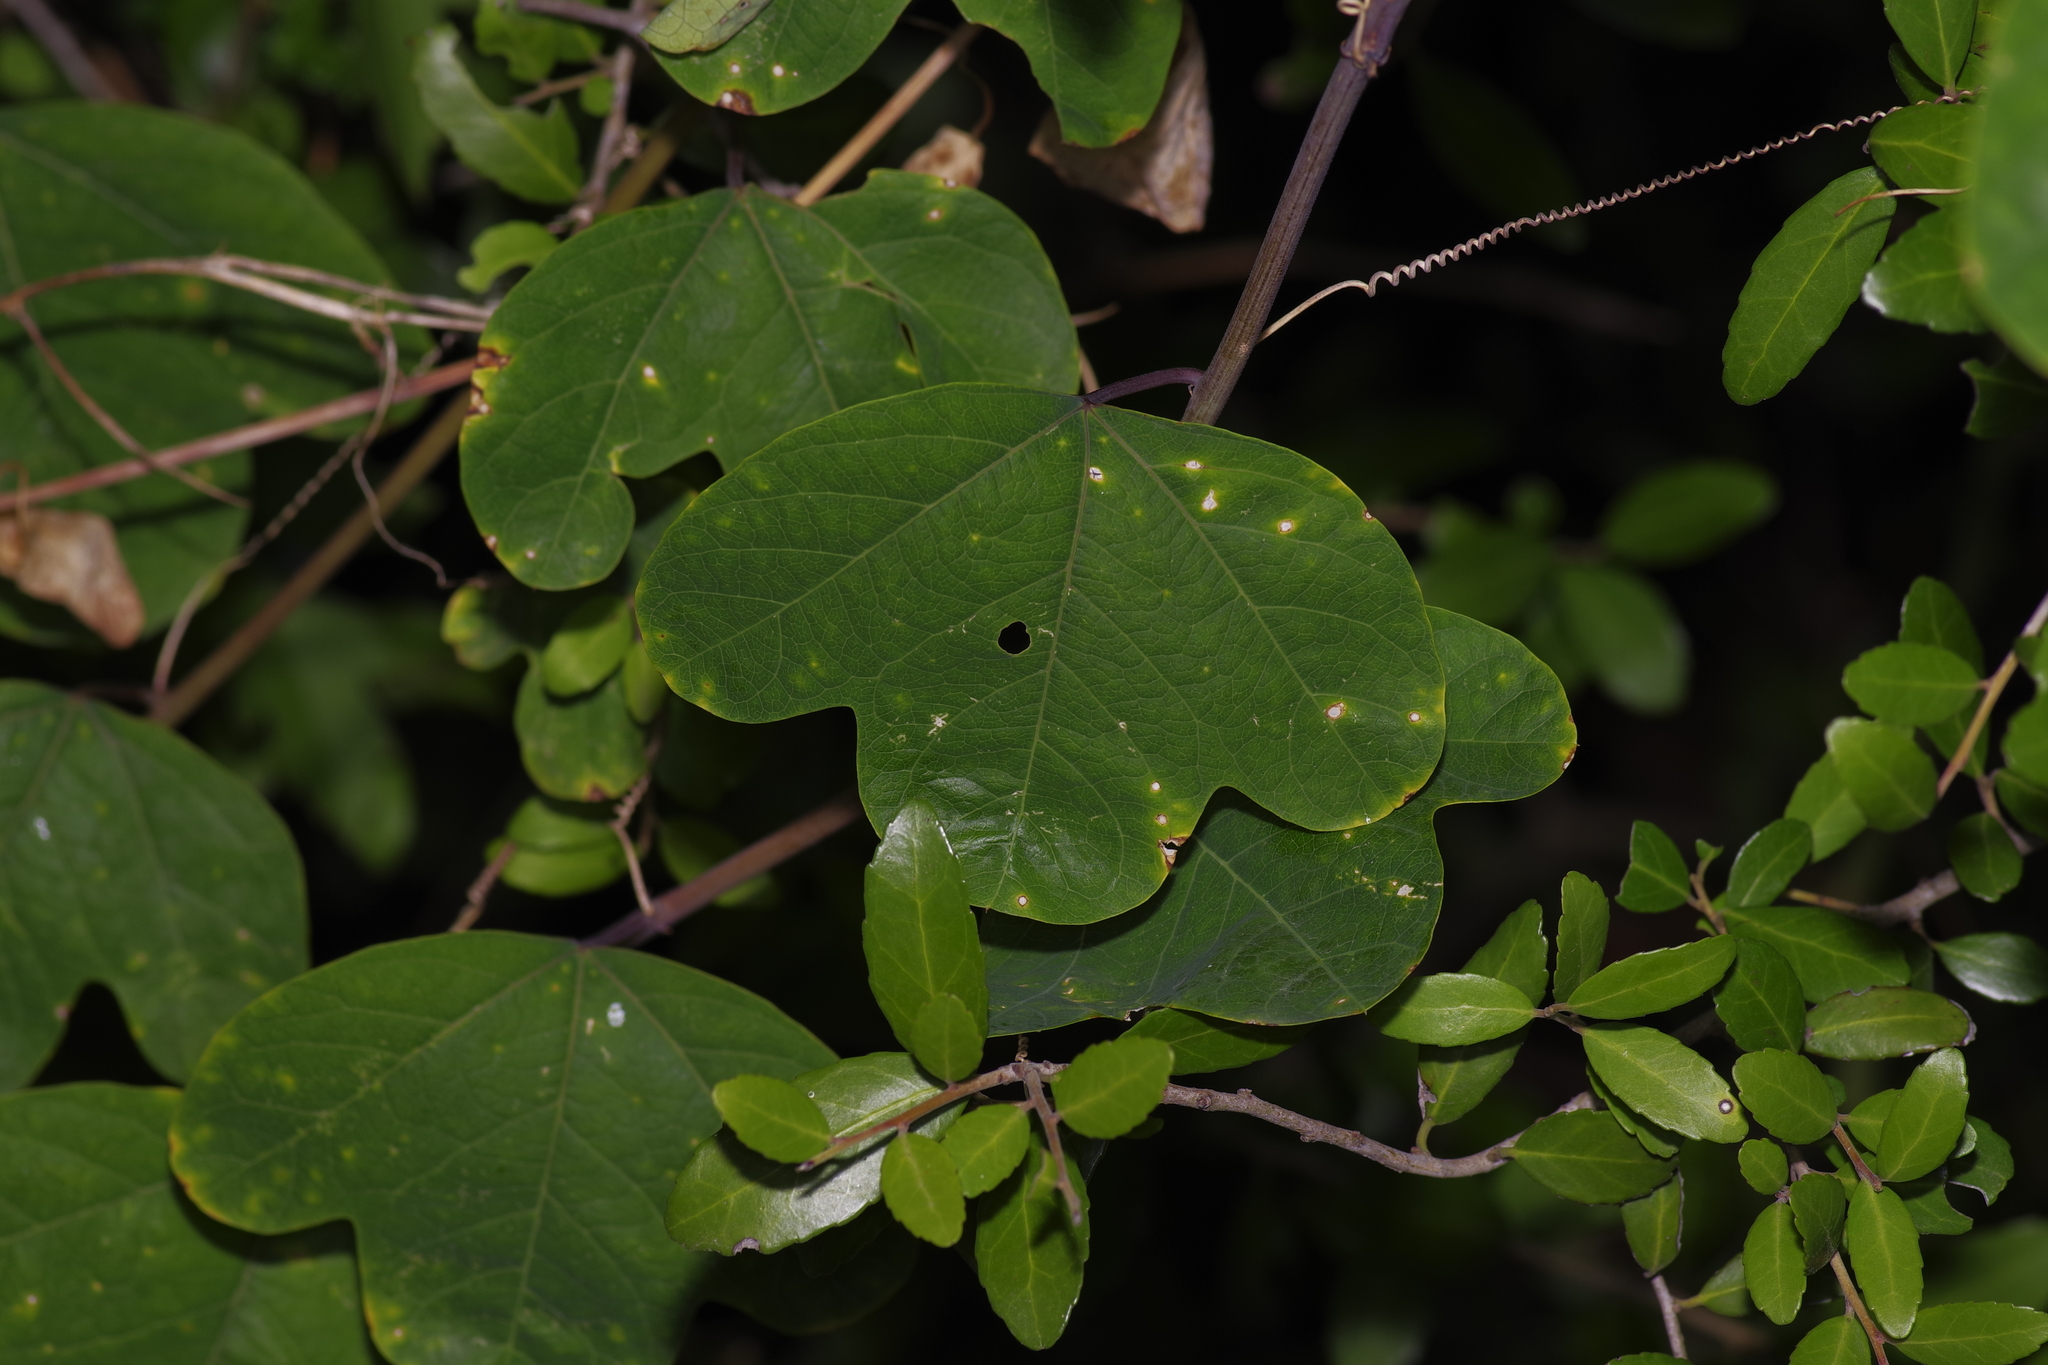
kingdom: Plantae
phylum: Tracheophyta
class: Magnoliopsida
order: Malpighiales
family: Passifloraceae
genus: Passiflora
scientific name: Passiflora affinis
